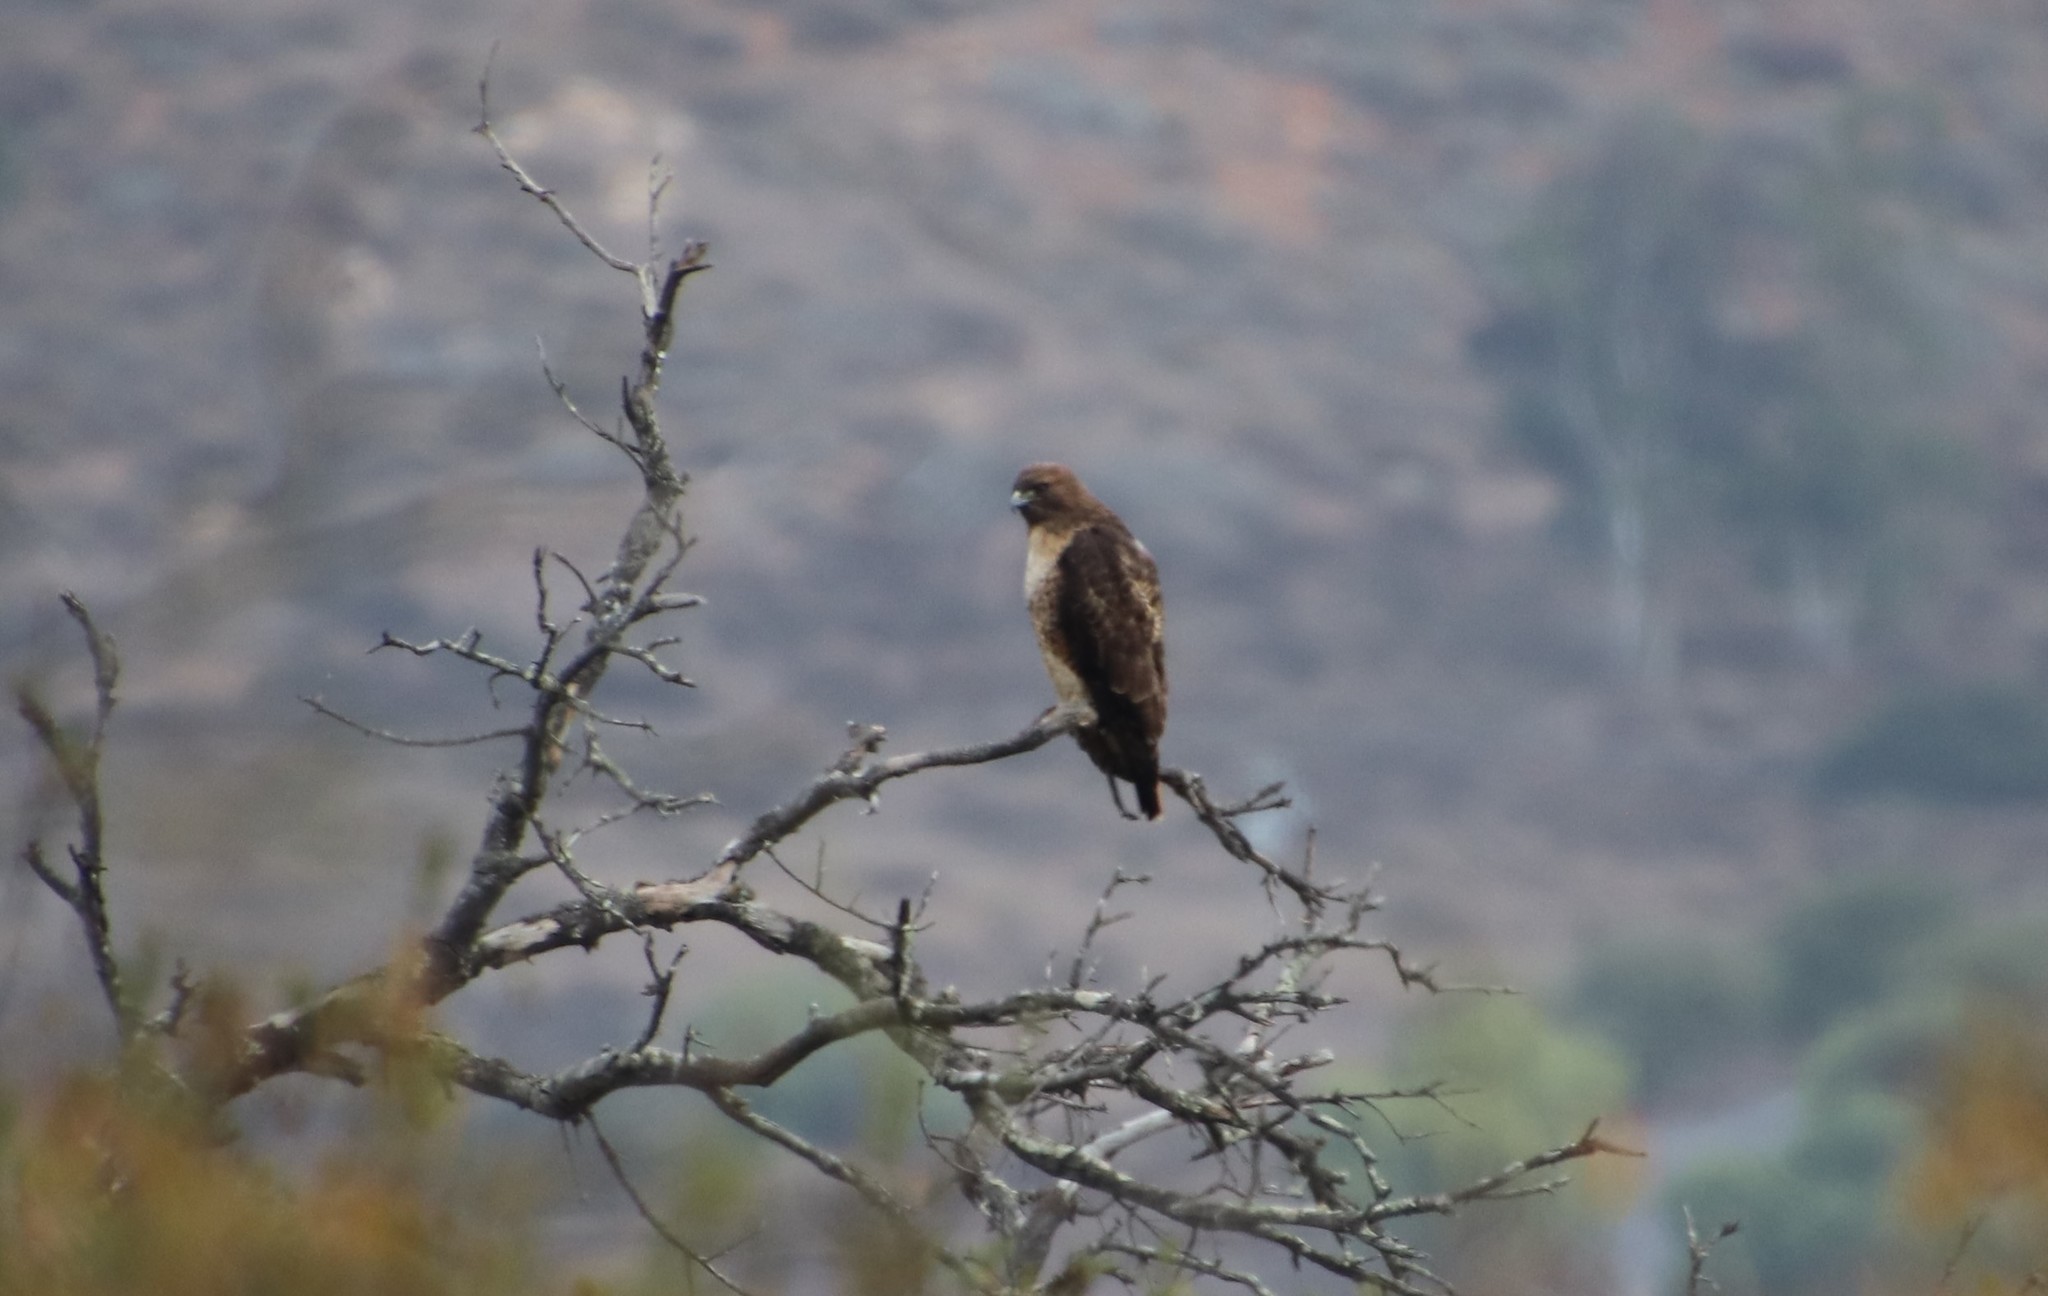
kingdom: Animalia
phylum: Chordata
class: Aves
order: Accipitriformes
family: Accipitridae
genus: Buteo
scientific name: Buteo jamaicensis
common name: Red-tailed hawk
